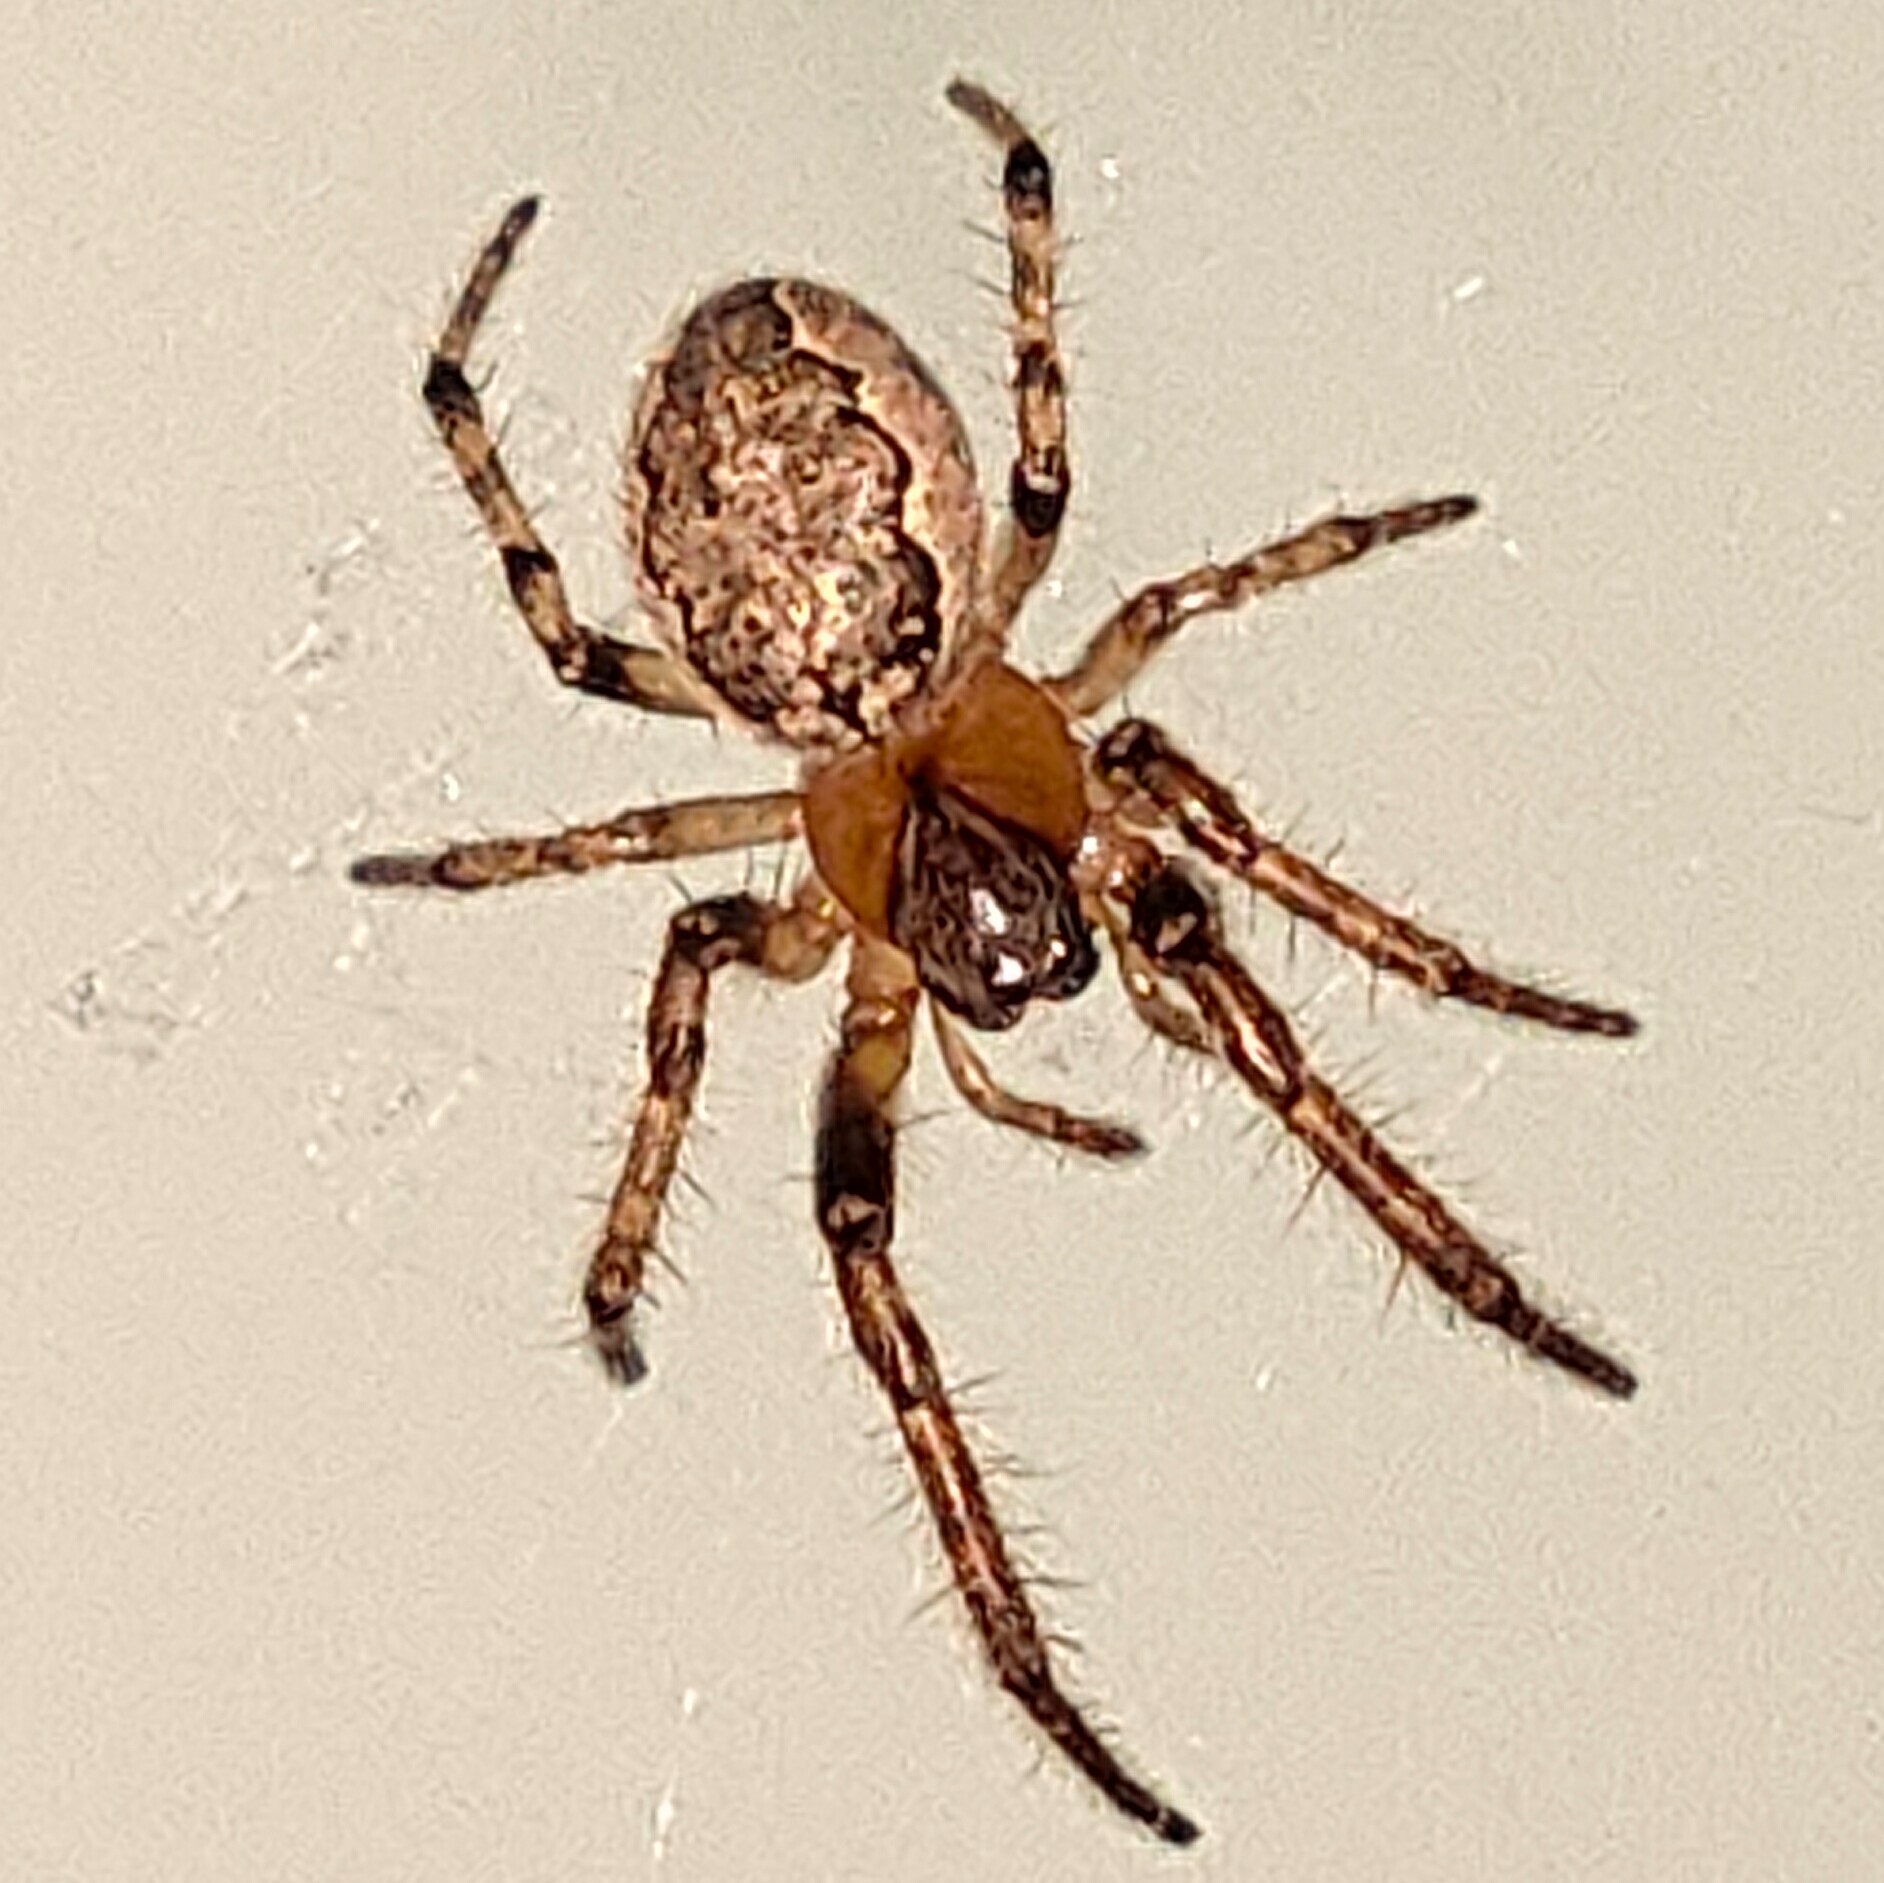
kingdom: Animalia
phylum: Arthropoda
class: Arachnida
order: Araneae
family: Araneidae
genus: Yaginumia
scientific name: Yaginumia sia
